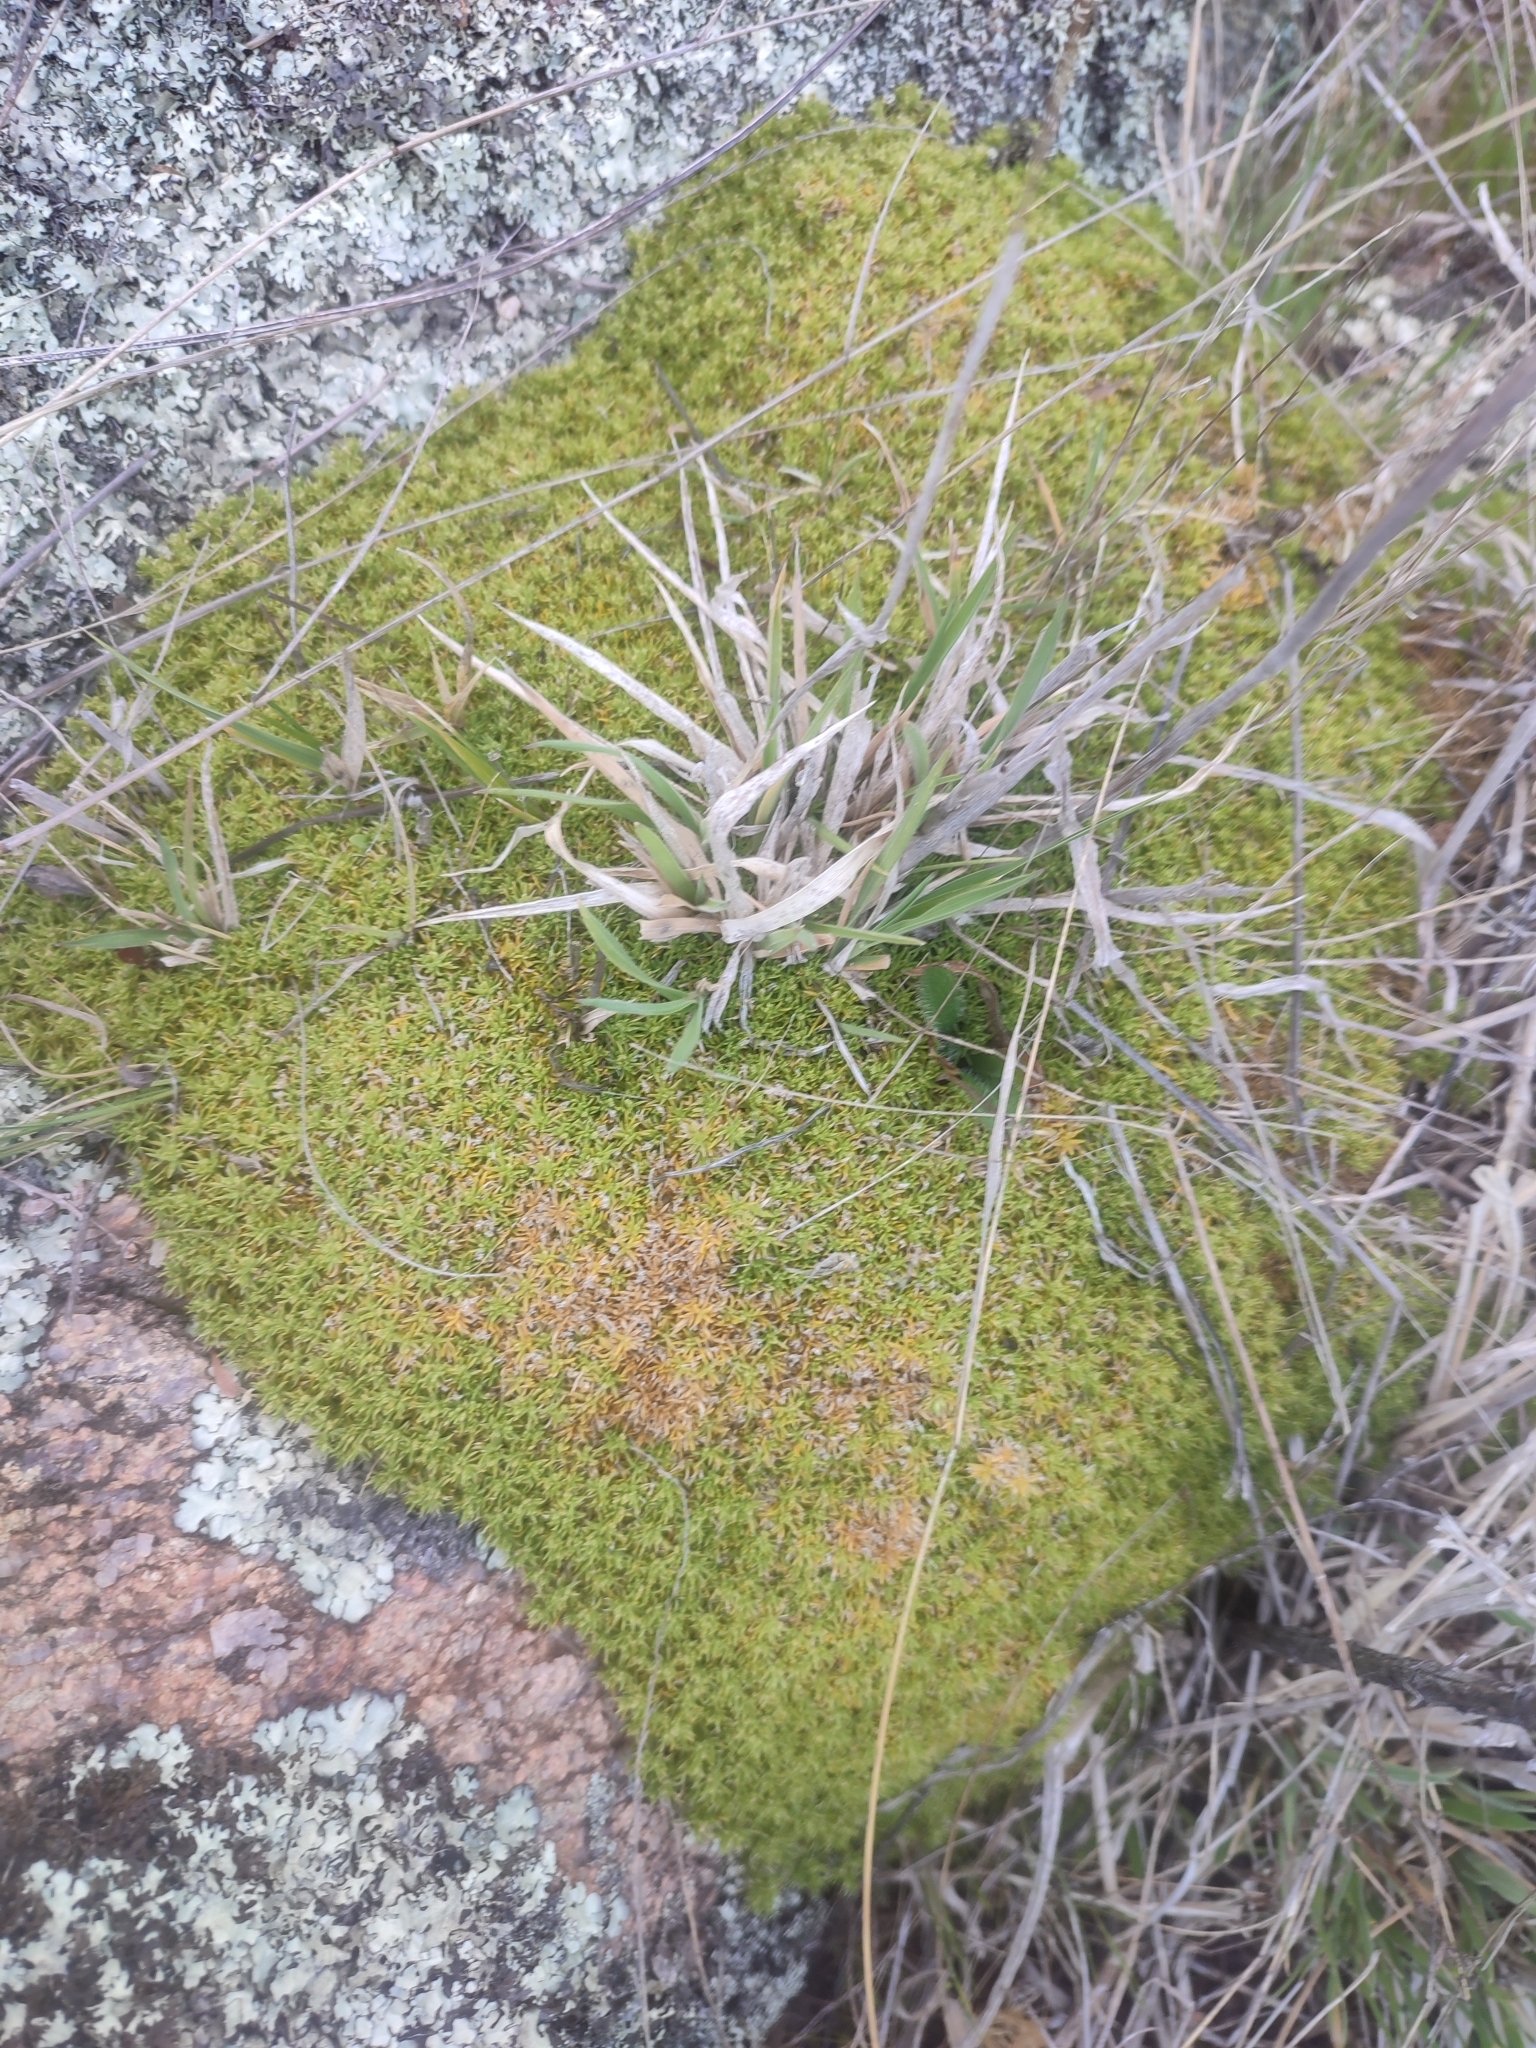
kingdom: Plantae
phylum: Tracheophyta
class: Magnoliopsida
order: Caryophyllales
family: Caryophyllaceae
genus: Scleranthus
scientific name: Scleranthus biflorus
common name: Two-flower knawel
